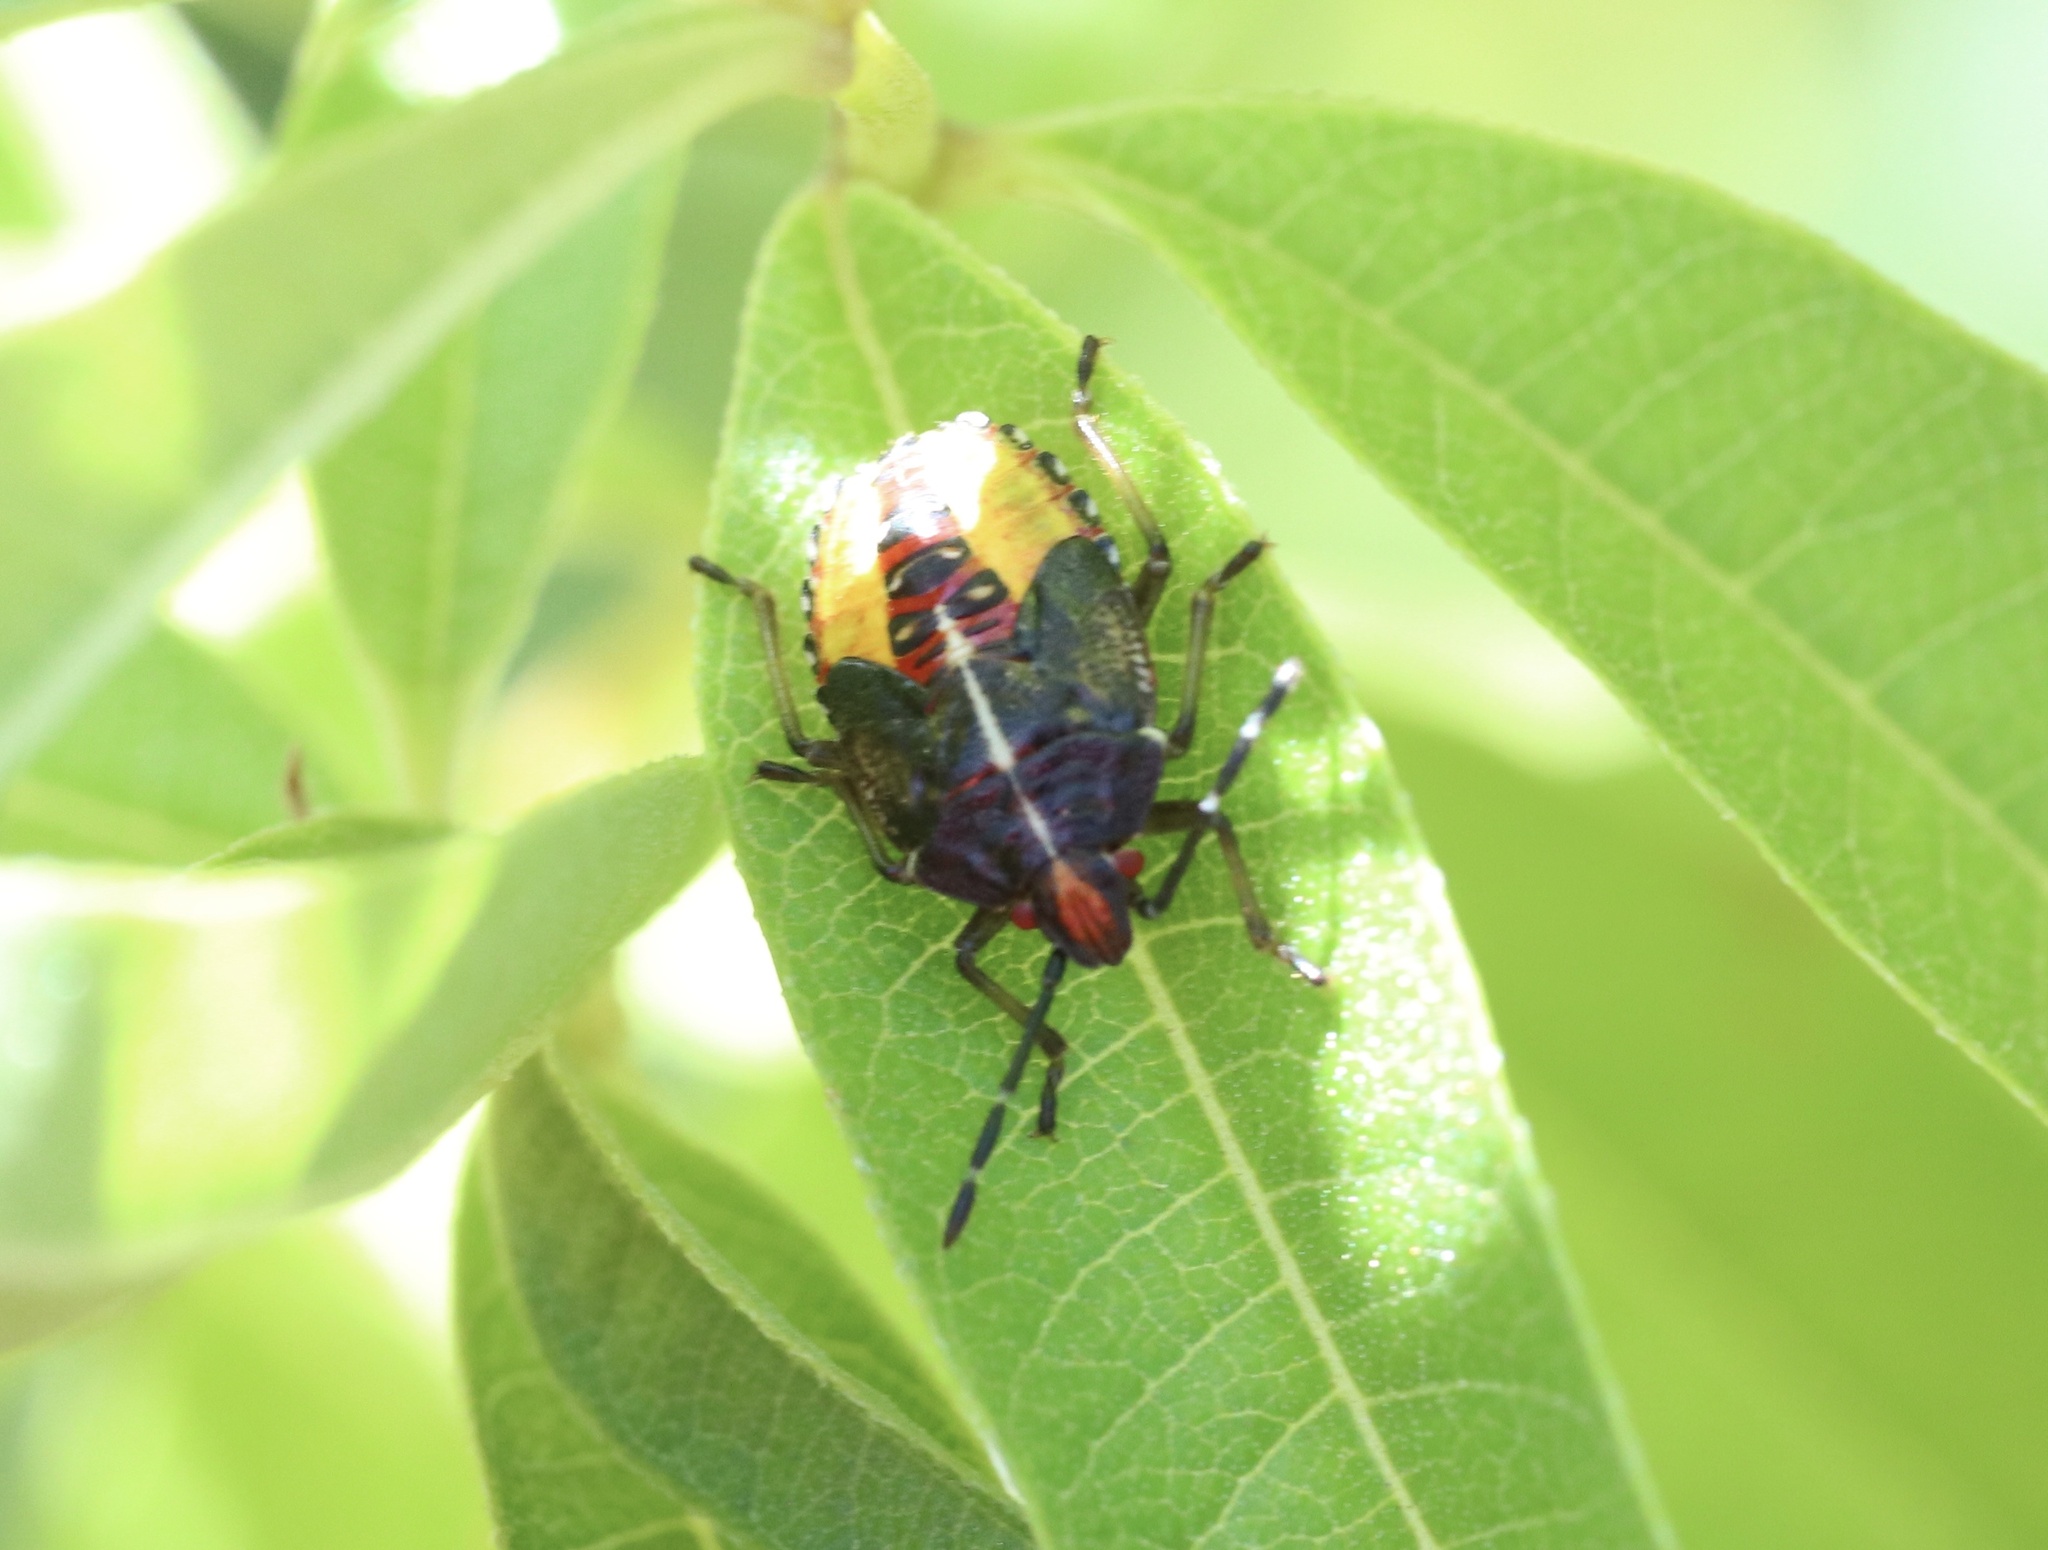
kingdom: Animalia
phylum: Arthropoda
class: Insecta
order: Hemiptera
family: Acanthosomatidae
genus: Sinopla
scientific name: Sinopla perpunctatus
